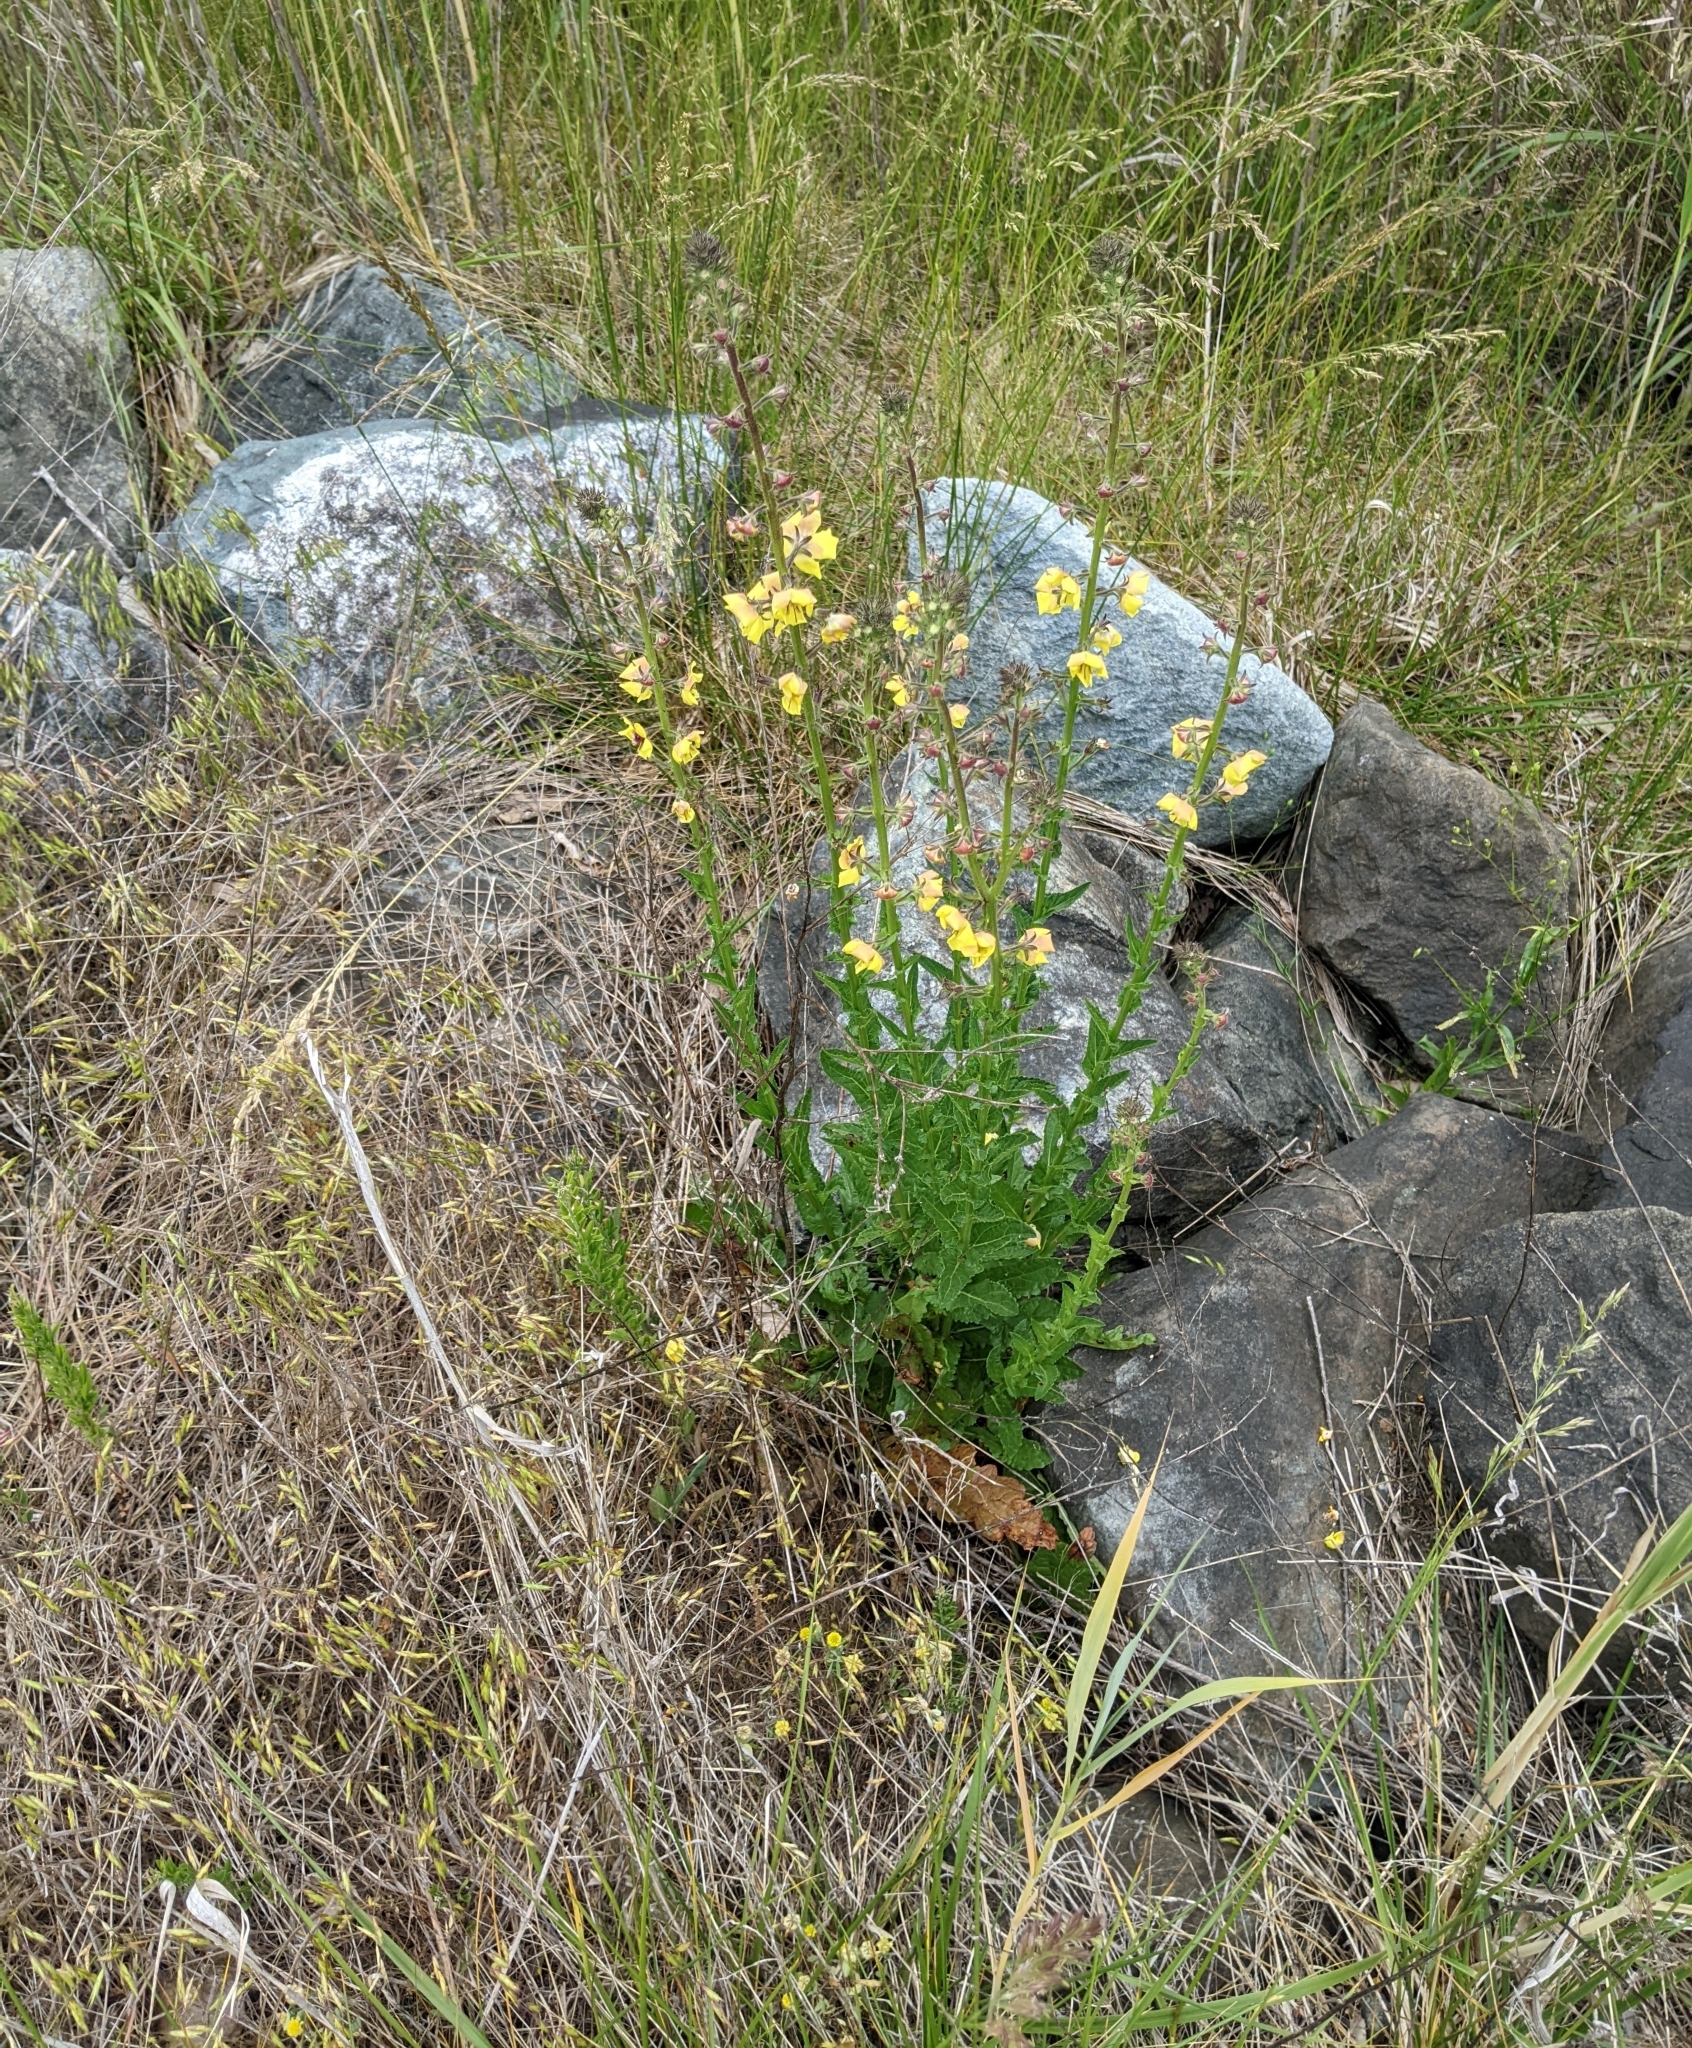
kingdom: Plantae
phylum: Tracheophyta
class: Magnoliopsida
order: Lamiales
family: Scrophulariaceae
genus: Verbascum
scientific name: Verbascum blattaria
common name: Moth mullein
